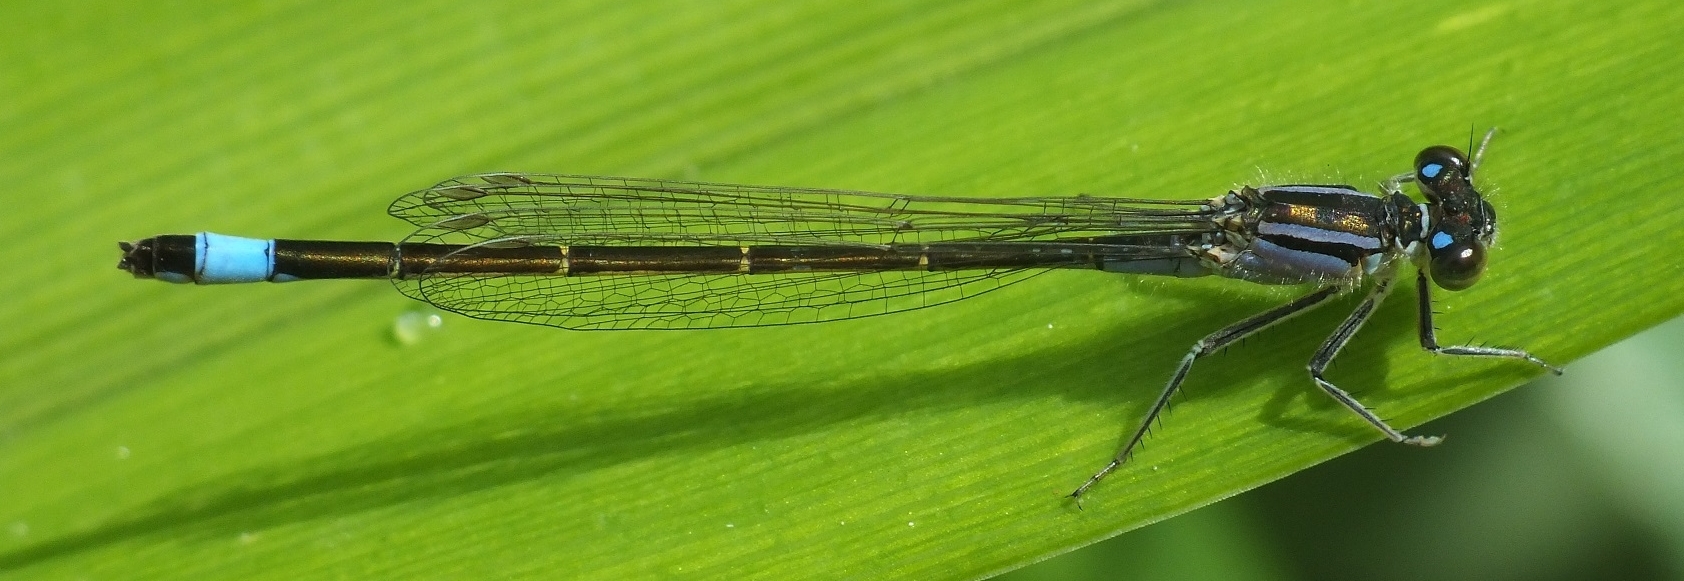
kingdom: Animalia
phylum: Arthropoda
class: Insecta
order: Odonata
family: Coenagrionidae
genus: Ischnura
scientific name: Ischnura elegans
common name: Blue-tailed damselfly
